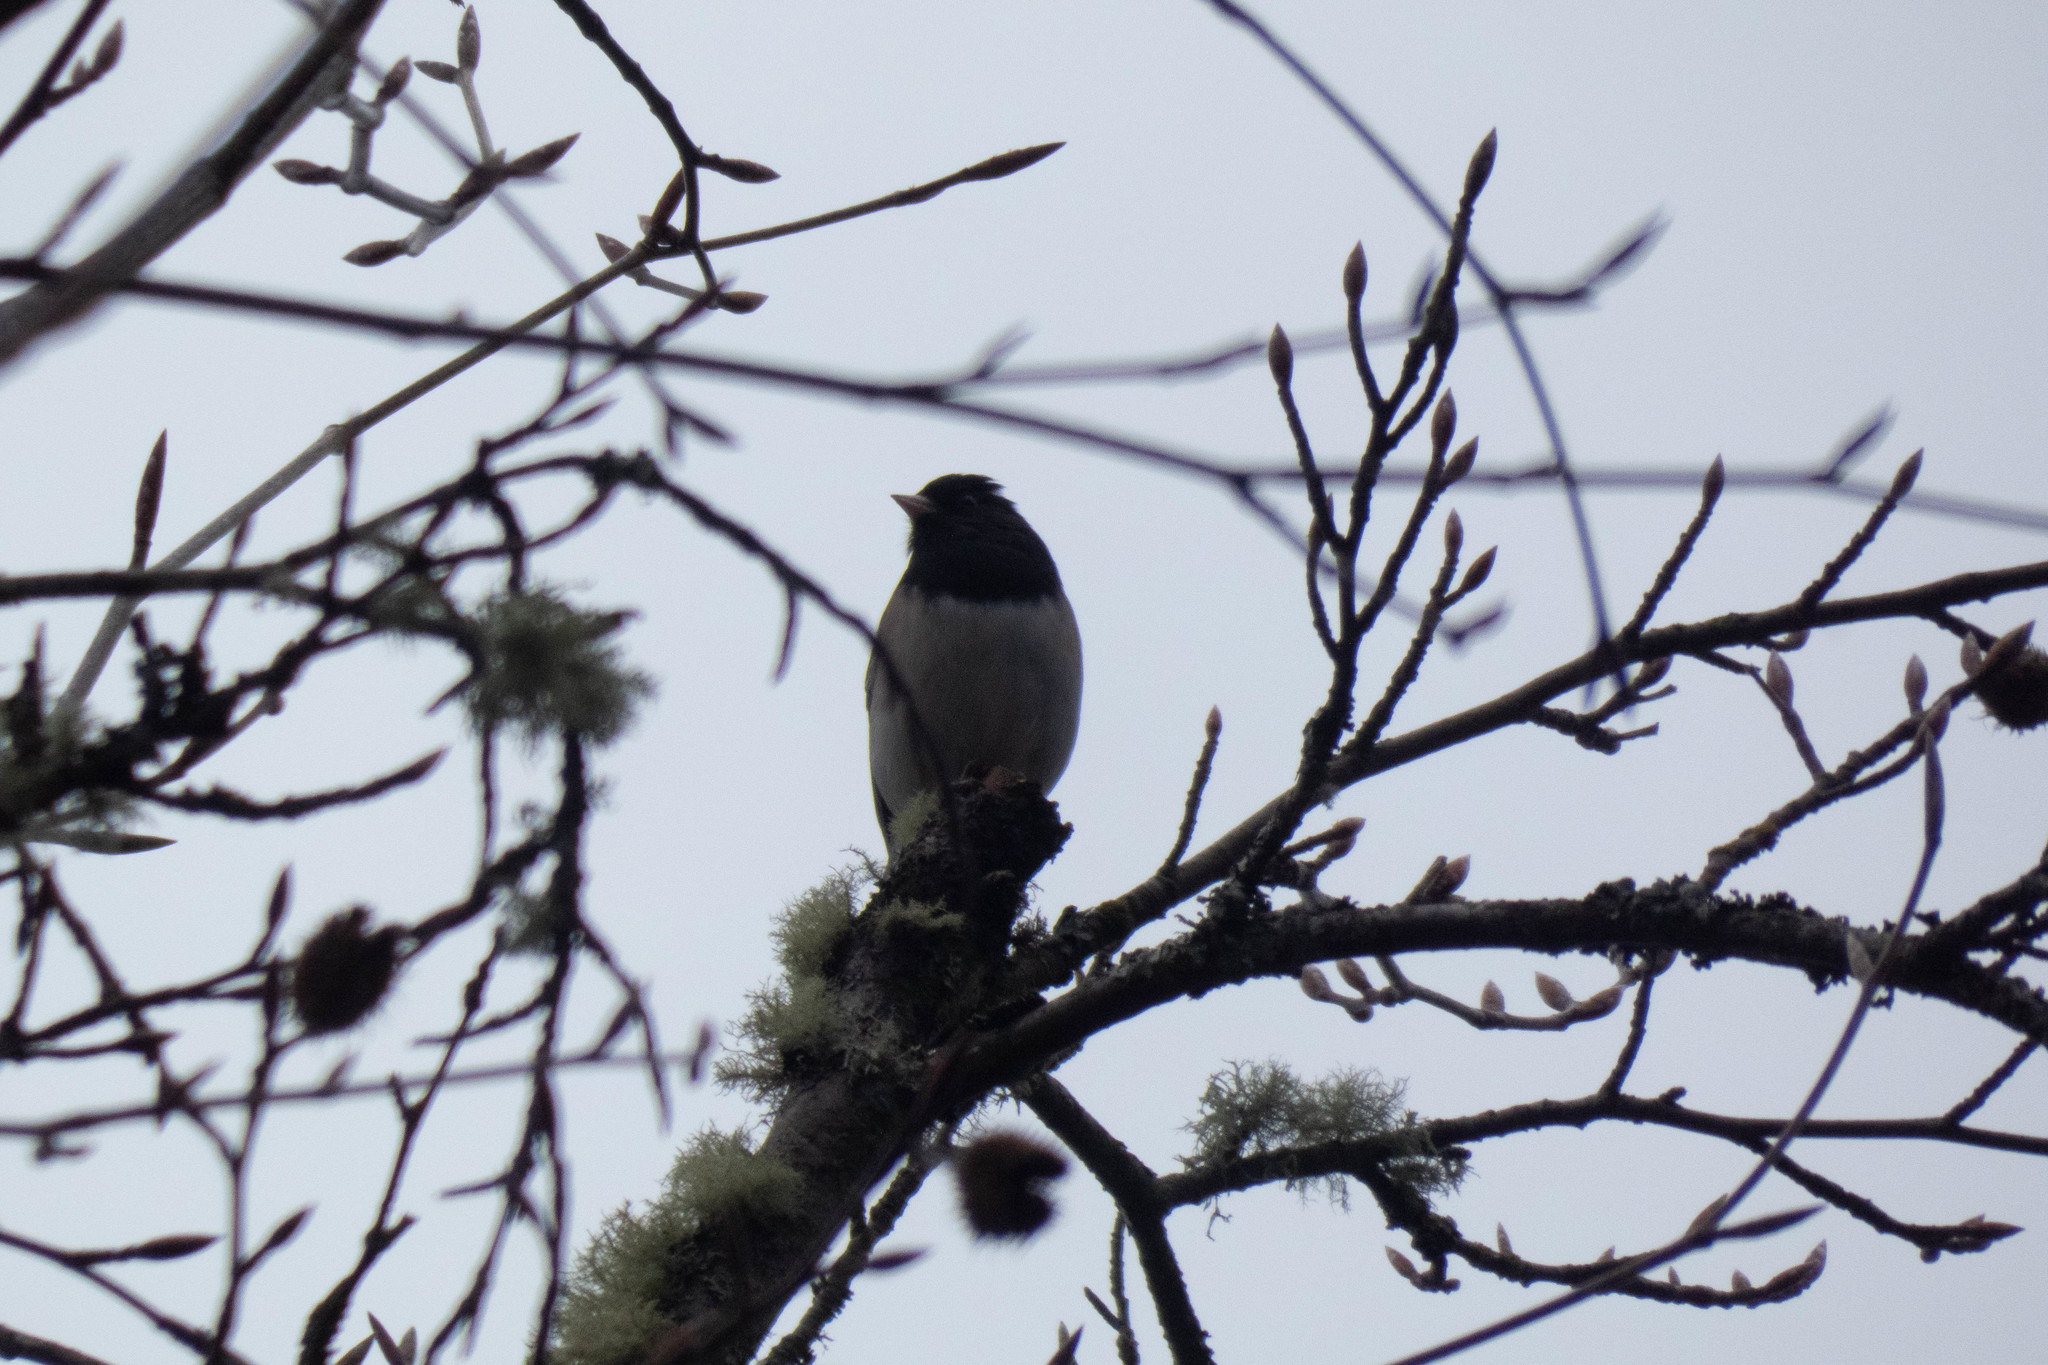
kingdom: Animalia
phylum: Chordata
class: Aves
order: Passeriformes
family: Passerellidae
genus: Junco
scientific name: Junco hyemalis
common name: Dark-eyed junco
